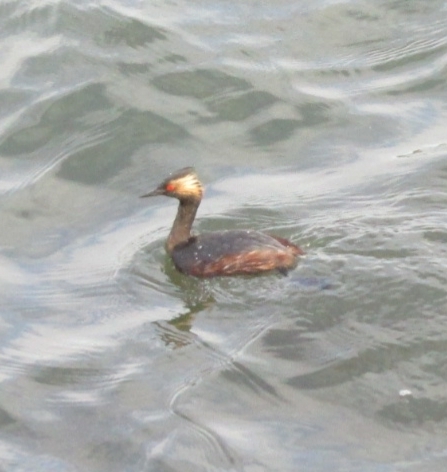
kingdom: Animalia
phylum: Chordata
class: Aves
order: Podicipediformes
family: Podicipedidae
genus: Podiceps
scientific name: Podiceps nigricollis
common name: Black-necked grebe
